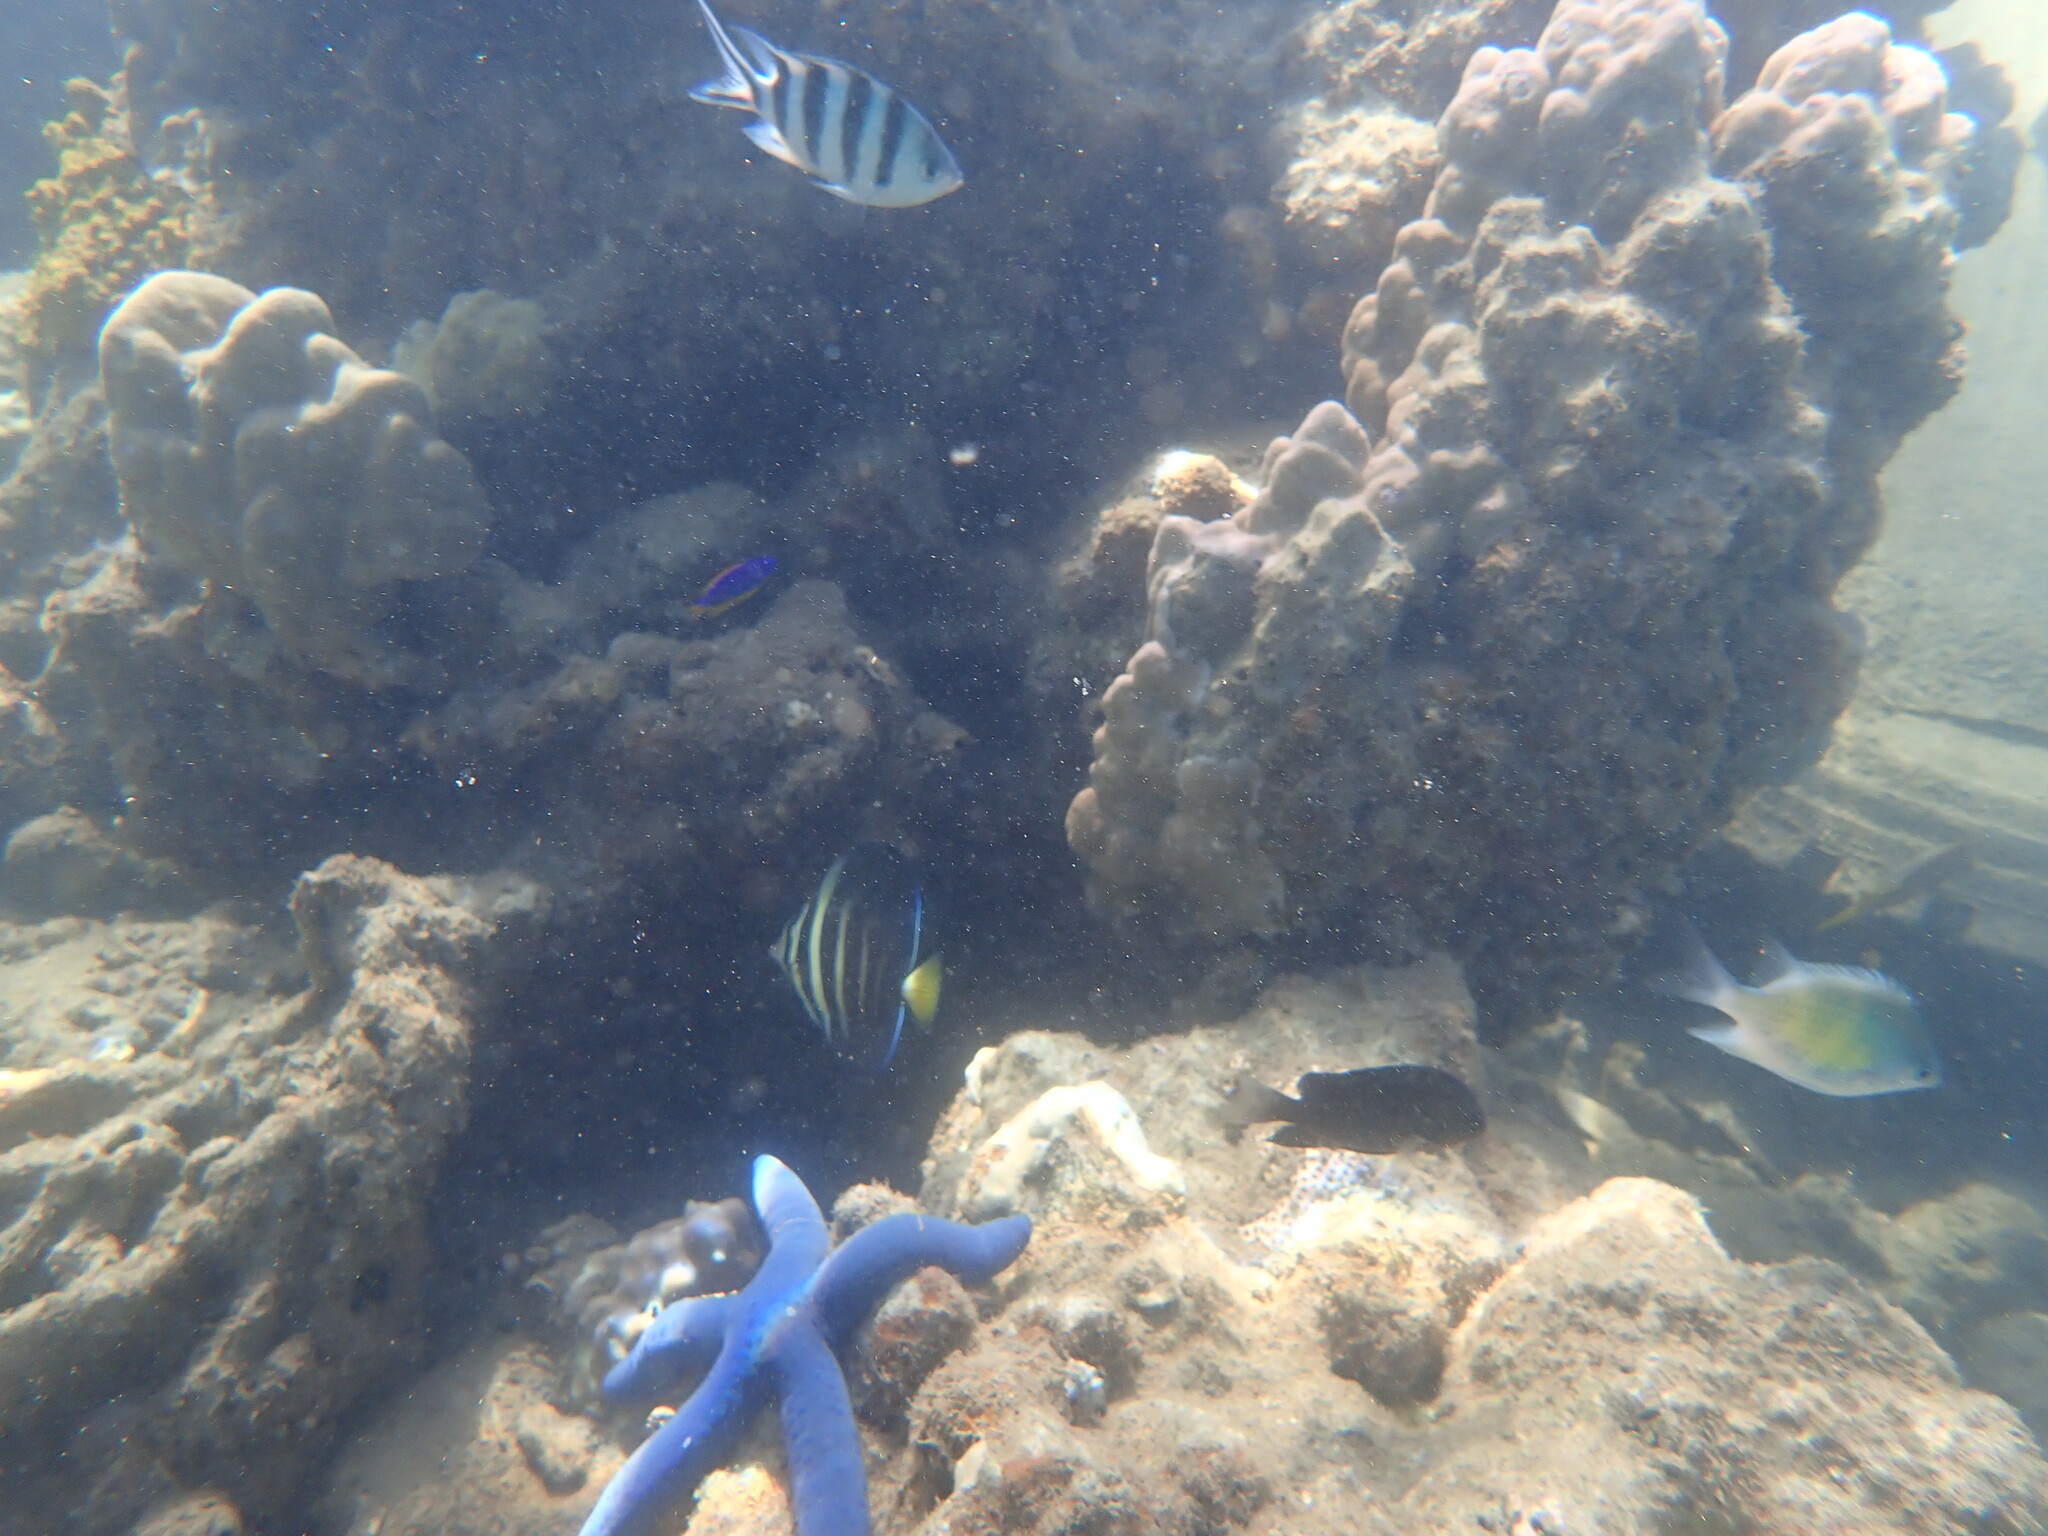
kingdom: Animalia
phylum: Chordata
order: Perciformes
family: Acanthuridae
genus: Zebrasoma
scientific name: Zebrasoma veliferum
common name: Sailfin surgeonfish
